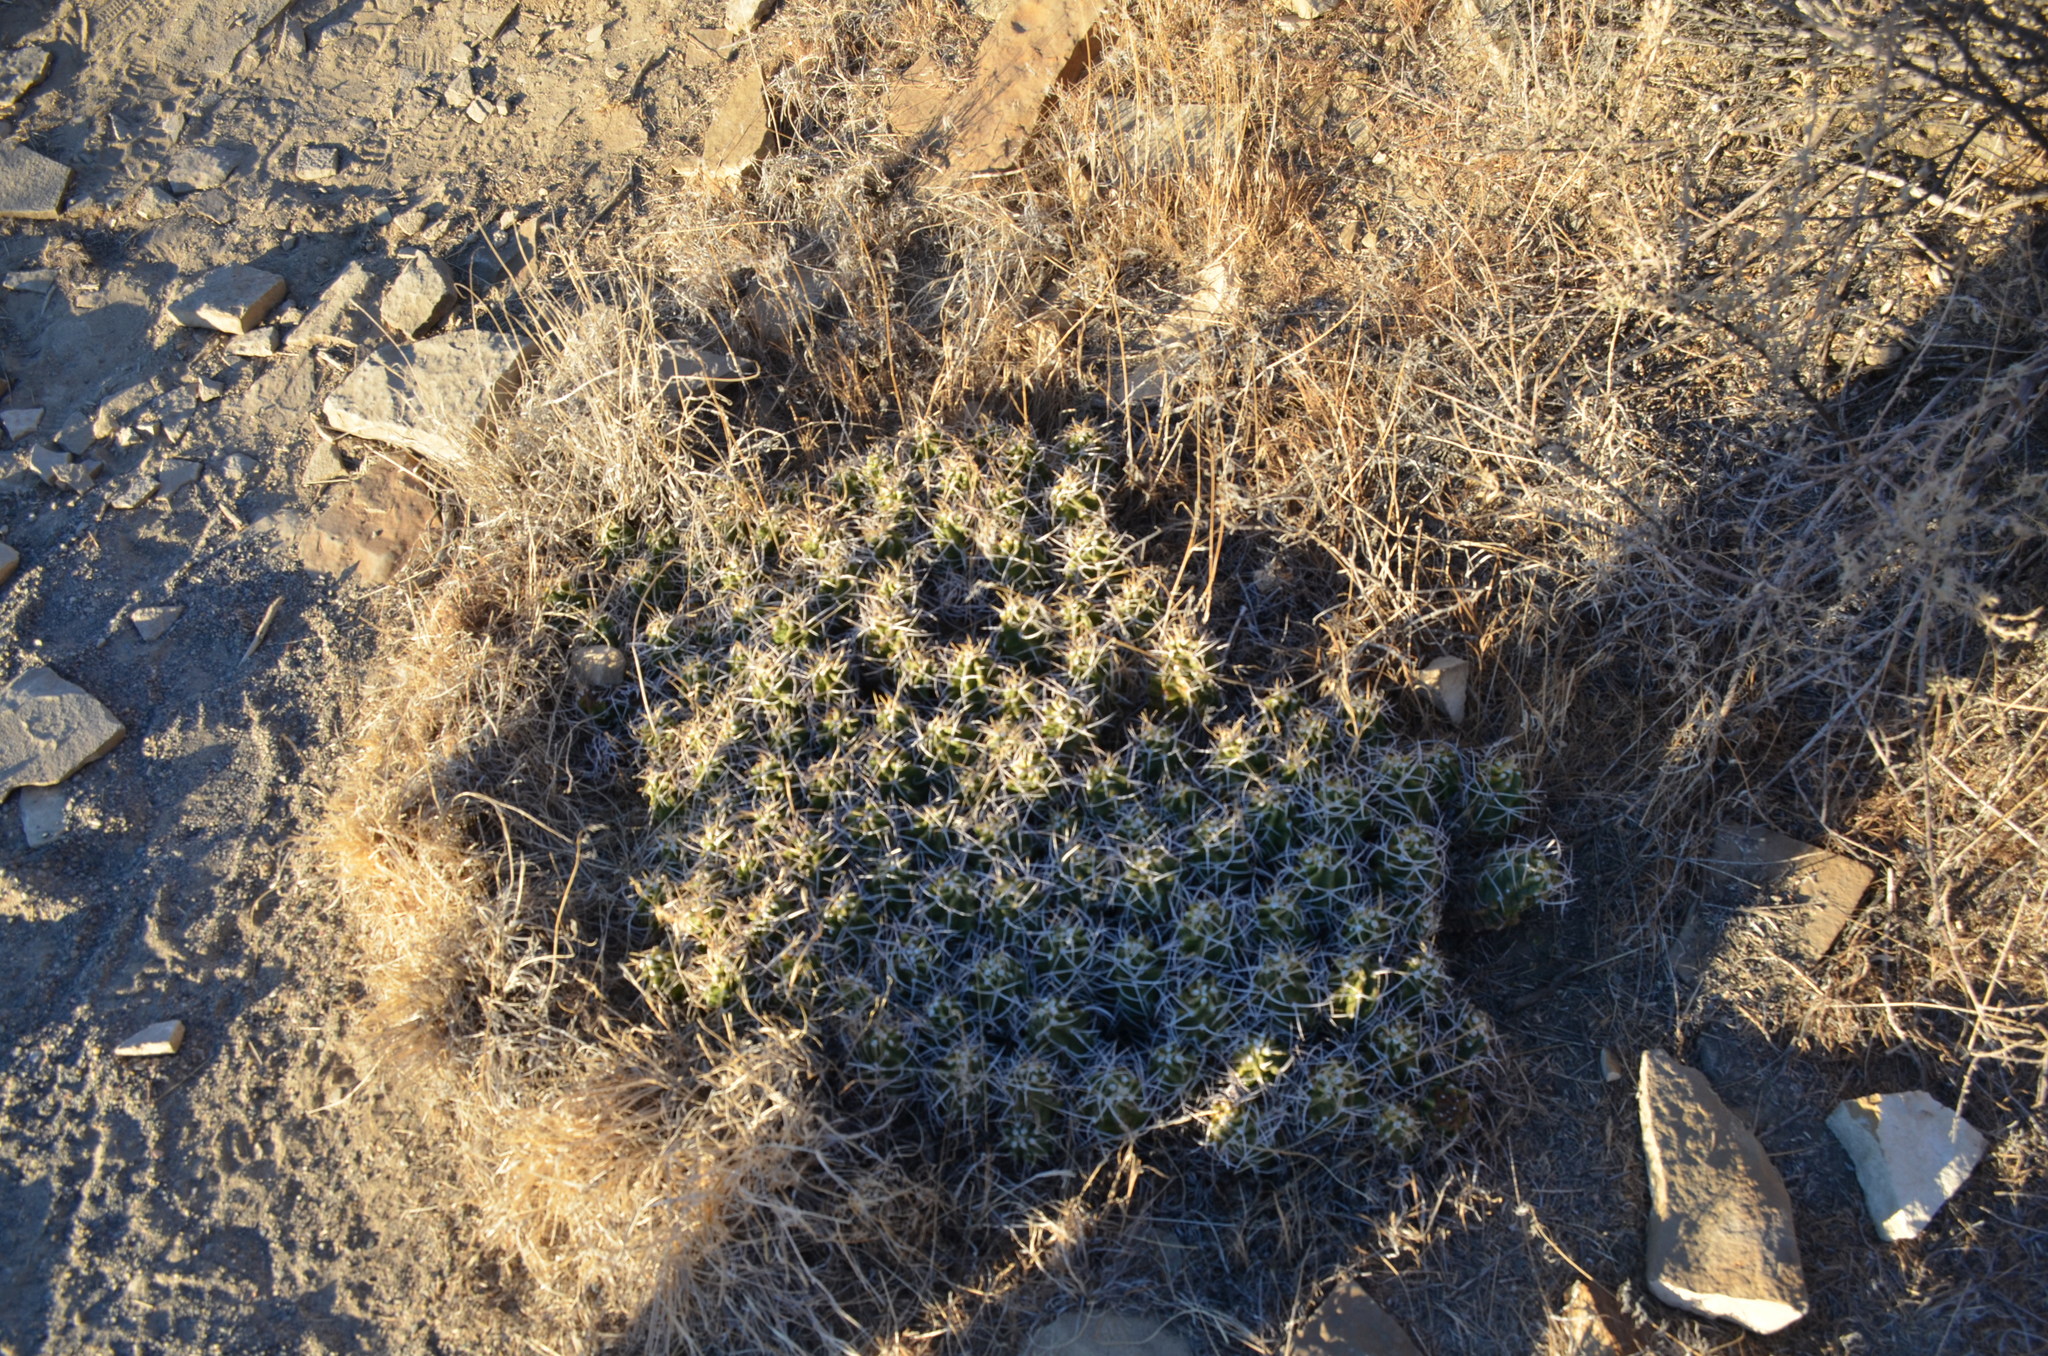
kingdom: Plantae
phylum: Tracheophyta
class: Magnoliopsida
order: Caryophyllales
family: Cactaceae
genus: Echinocereus
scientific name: Echinocereus triglochidiatus
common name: Claretcup hedgehog
